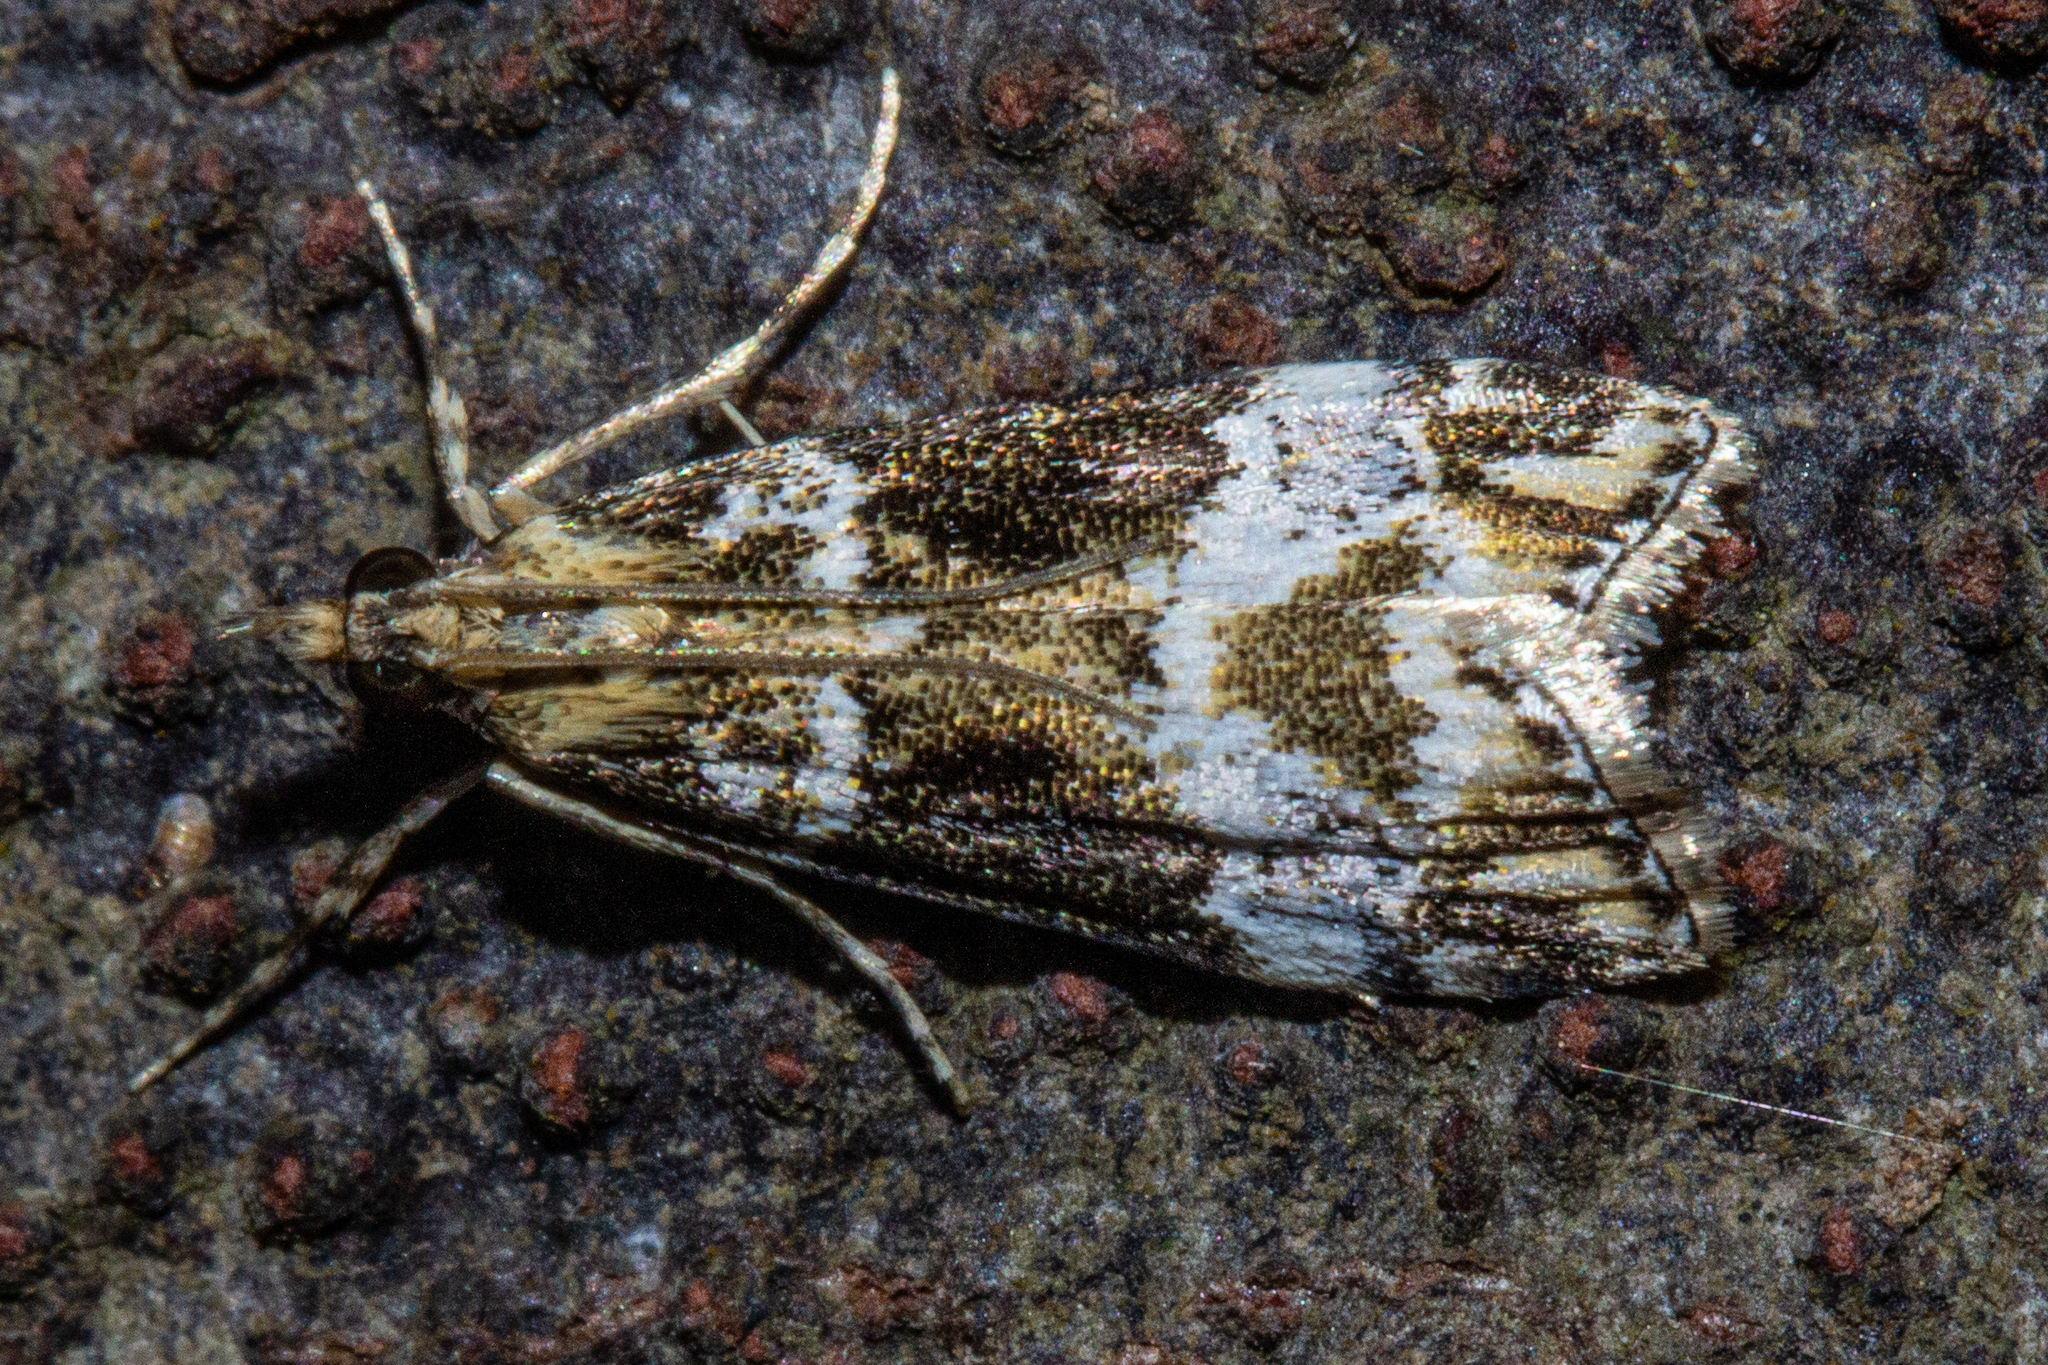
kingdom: Animalia
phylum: Arthropoda
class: Insecta
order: Lepidoptera
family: Crambidae
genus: Scoparia
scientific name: Scoparia
